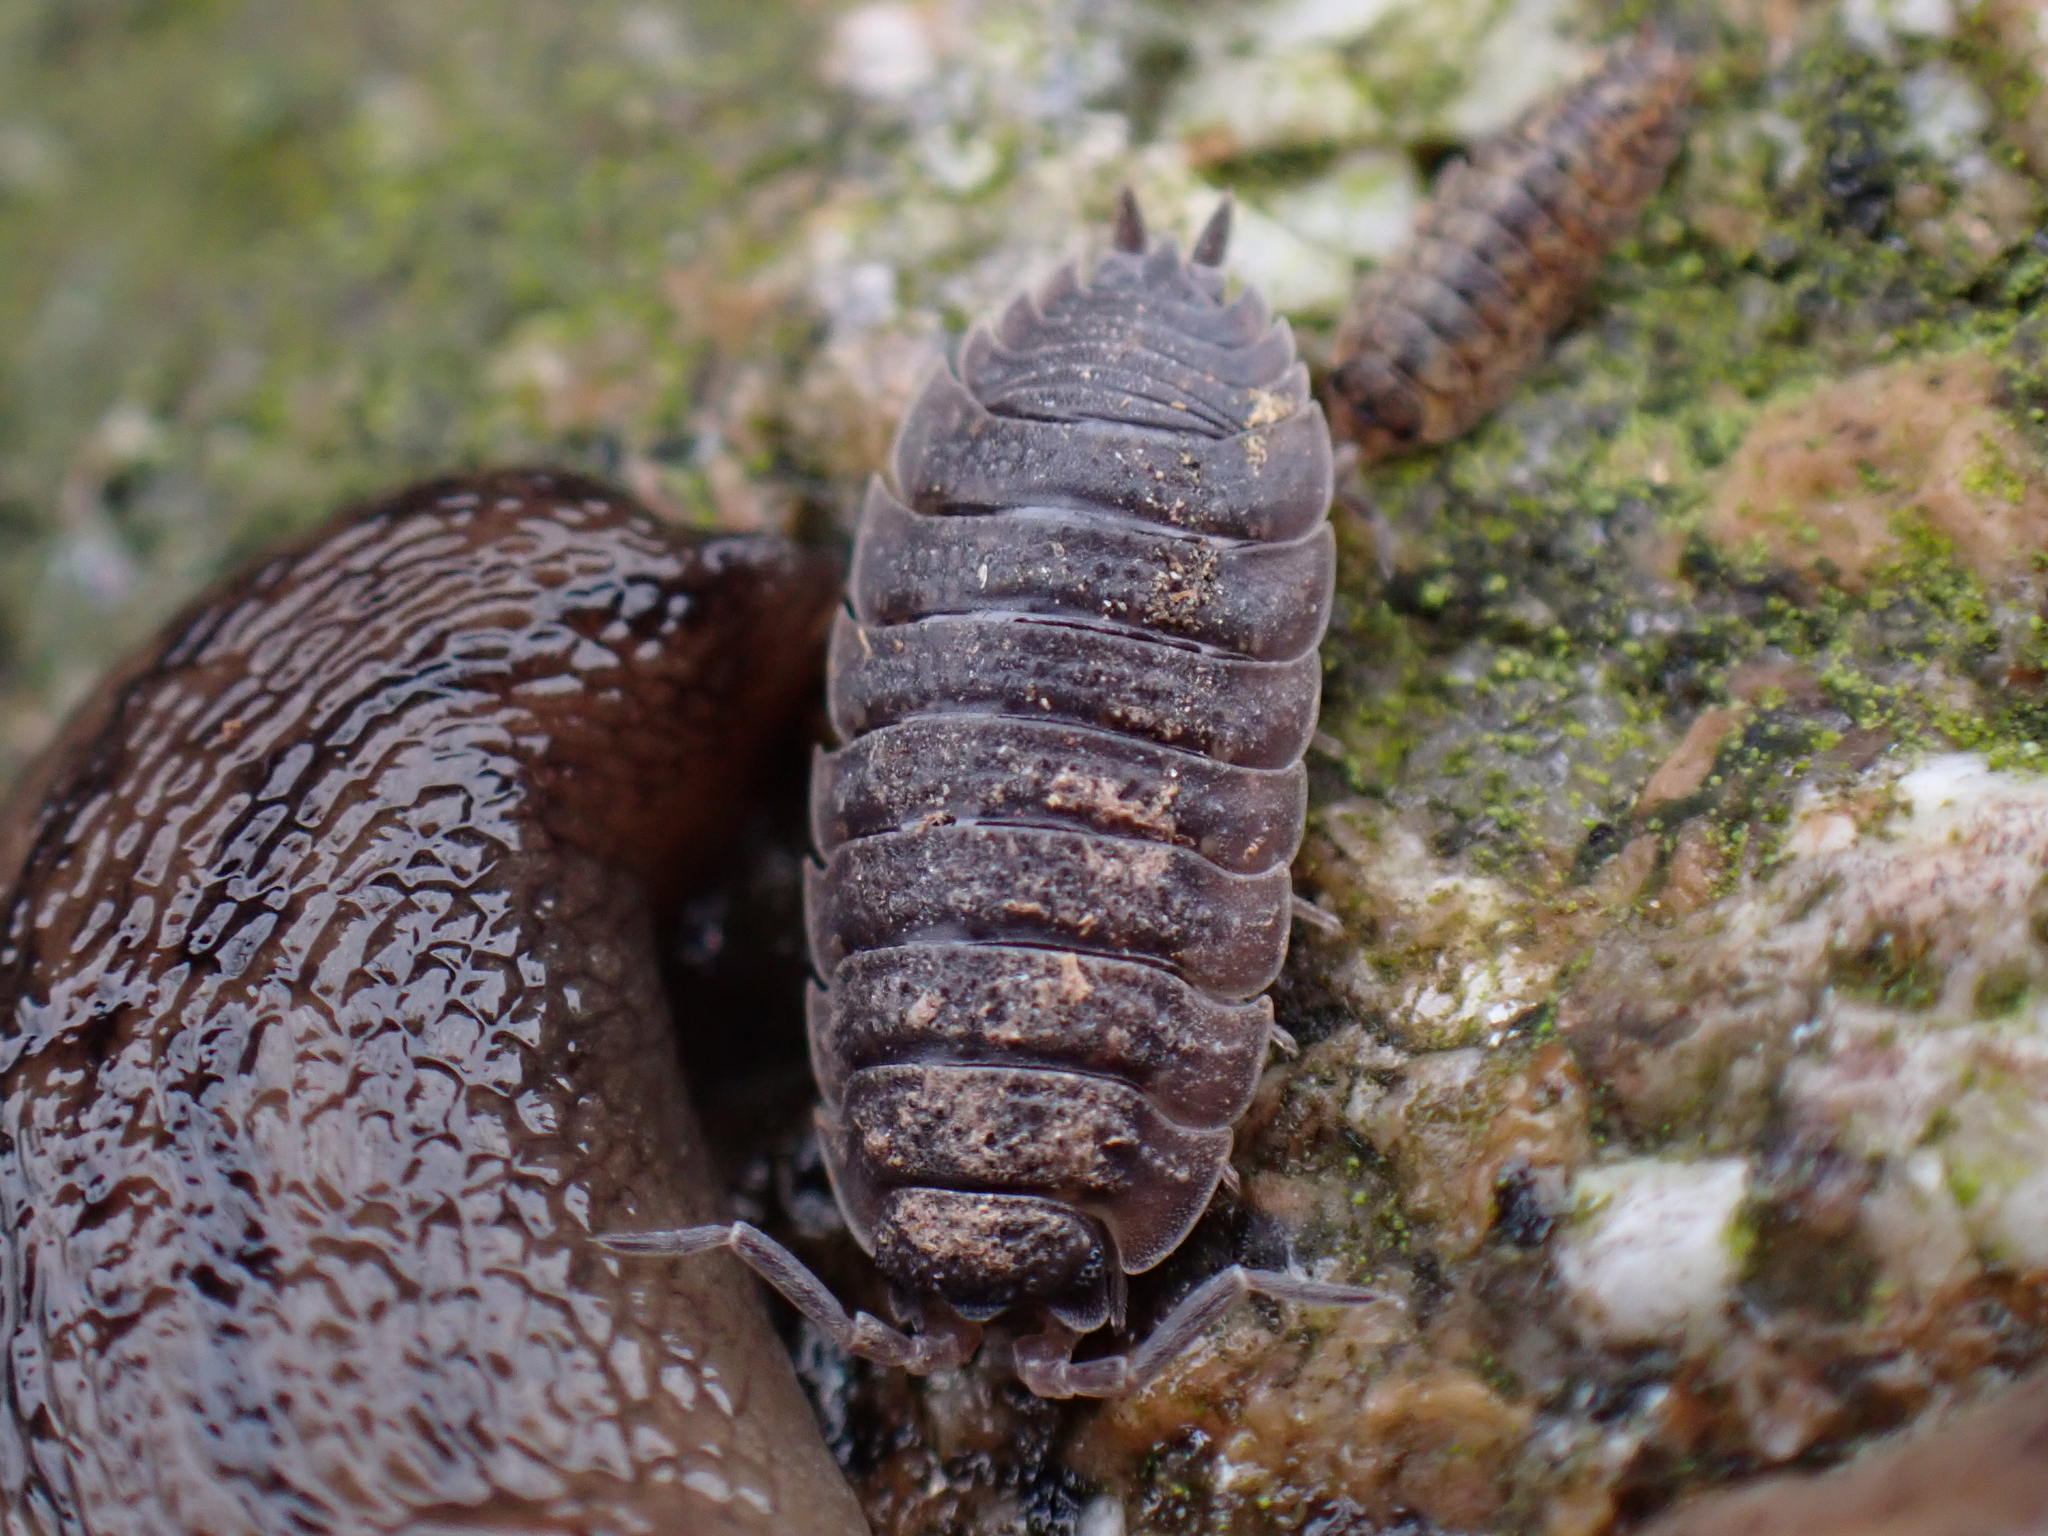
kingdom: Animalia
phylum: Arthropoda
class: Malacostraca
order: Isopoda
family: Porcellionidae
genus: Porcellio
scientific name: Porcellio scaber
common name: Common rough woodlouse
